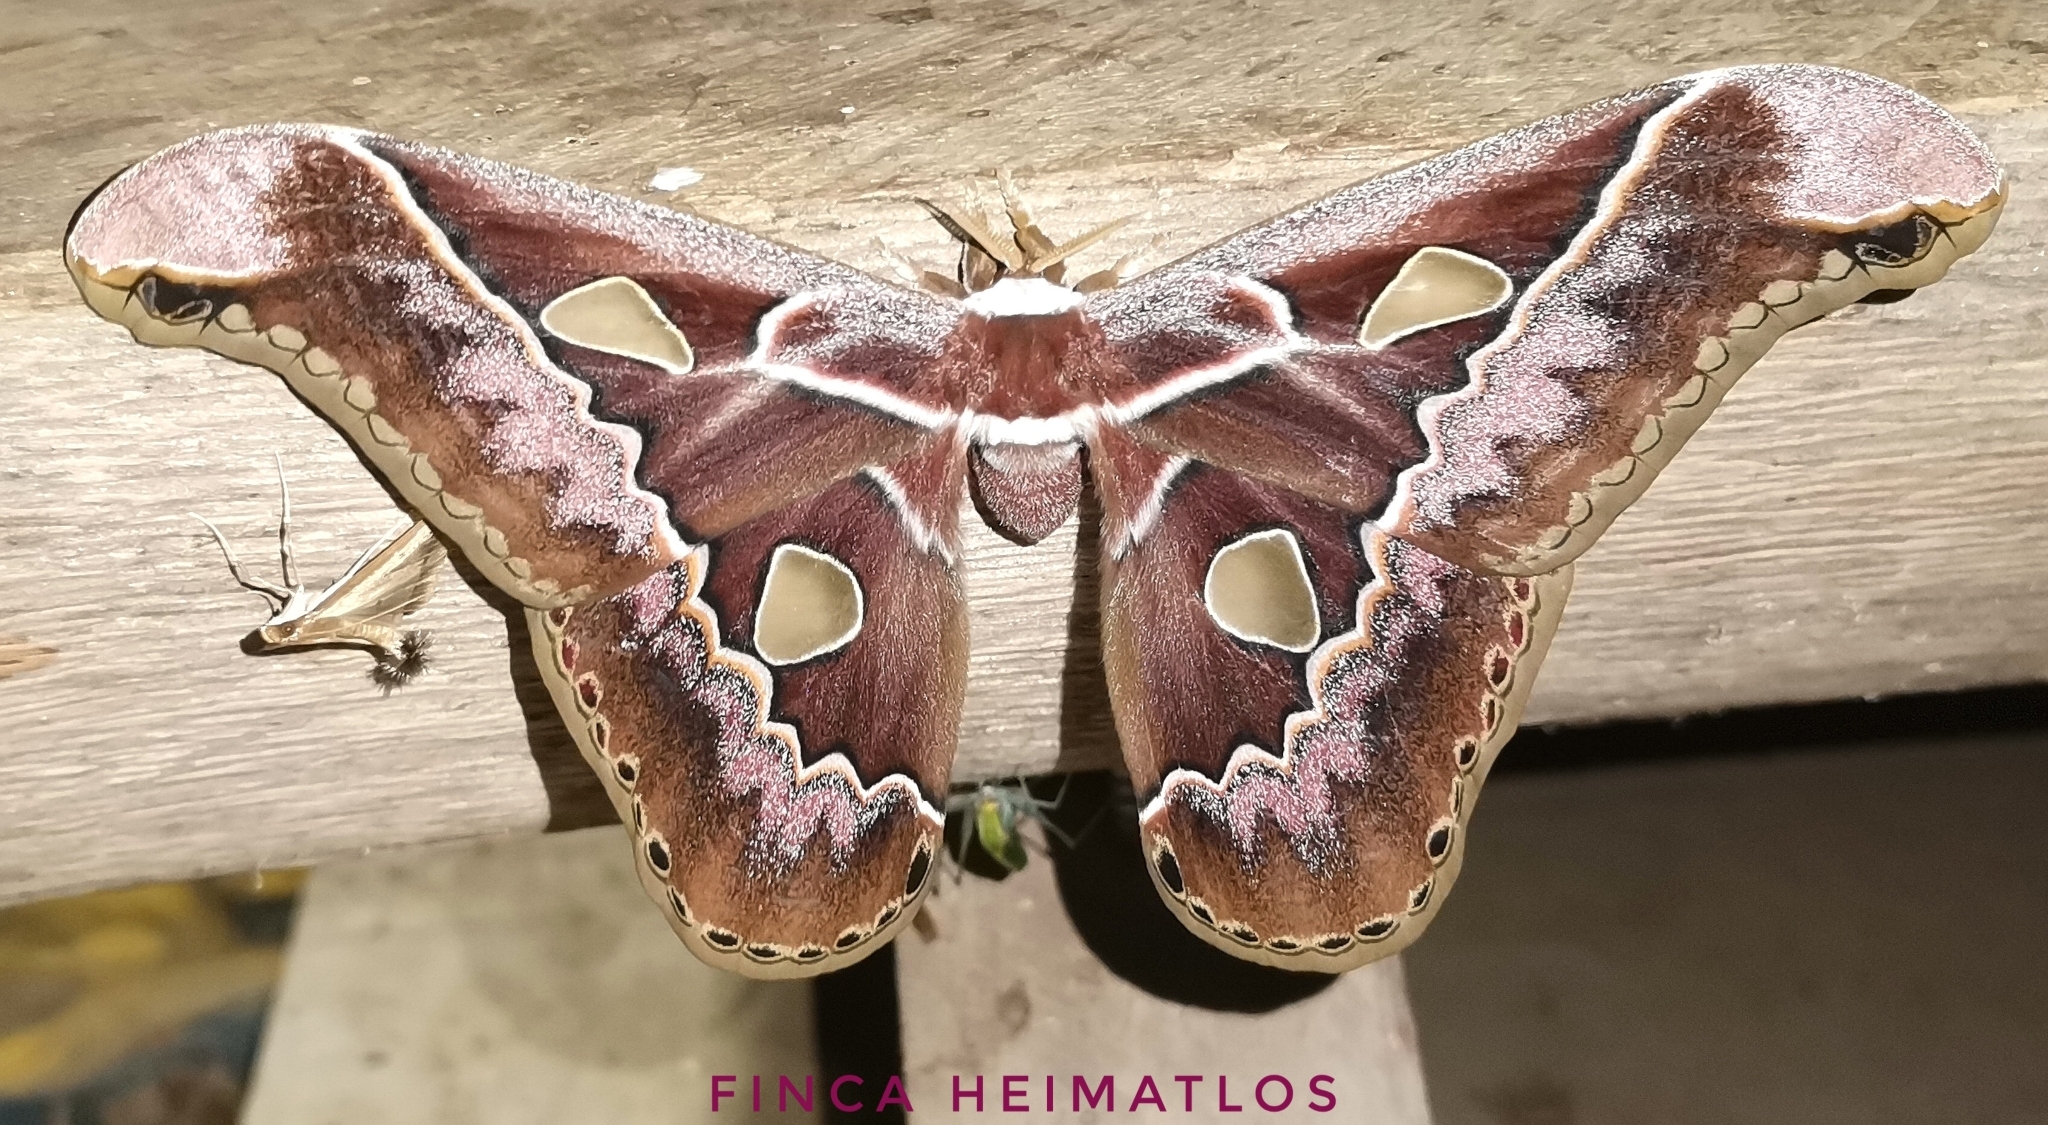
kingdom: Animalia
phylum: Arthropoda
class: Insecta
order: Lepidoptera
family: Saturniidae
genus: Rothschildia
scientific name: Rothschildia lebeau
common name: Lebeau's rothschildia
